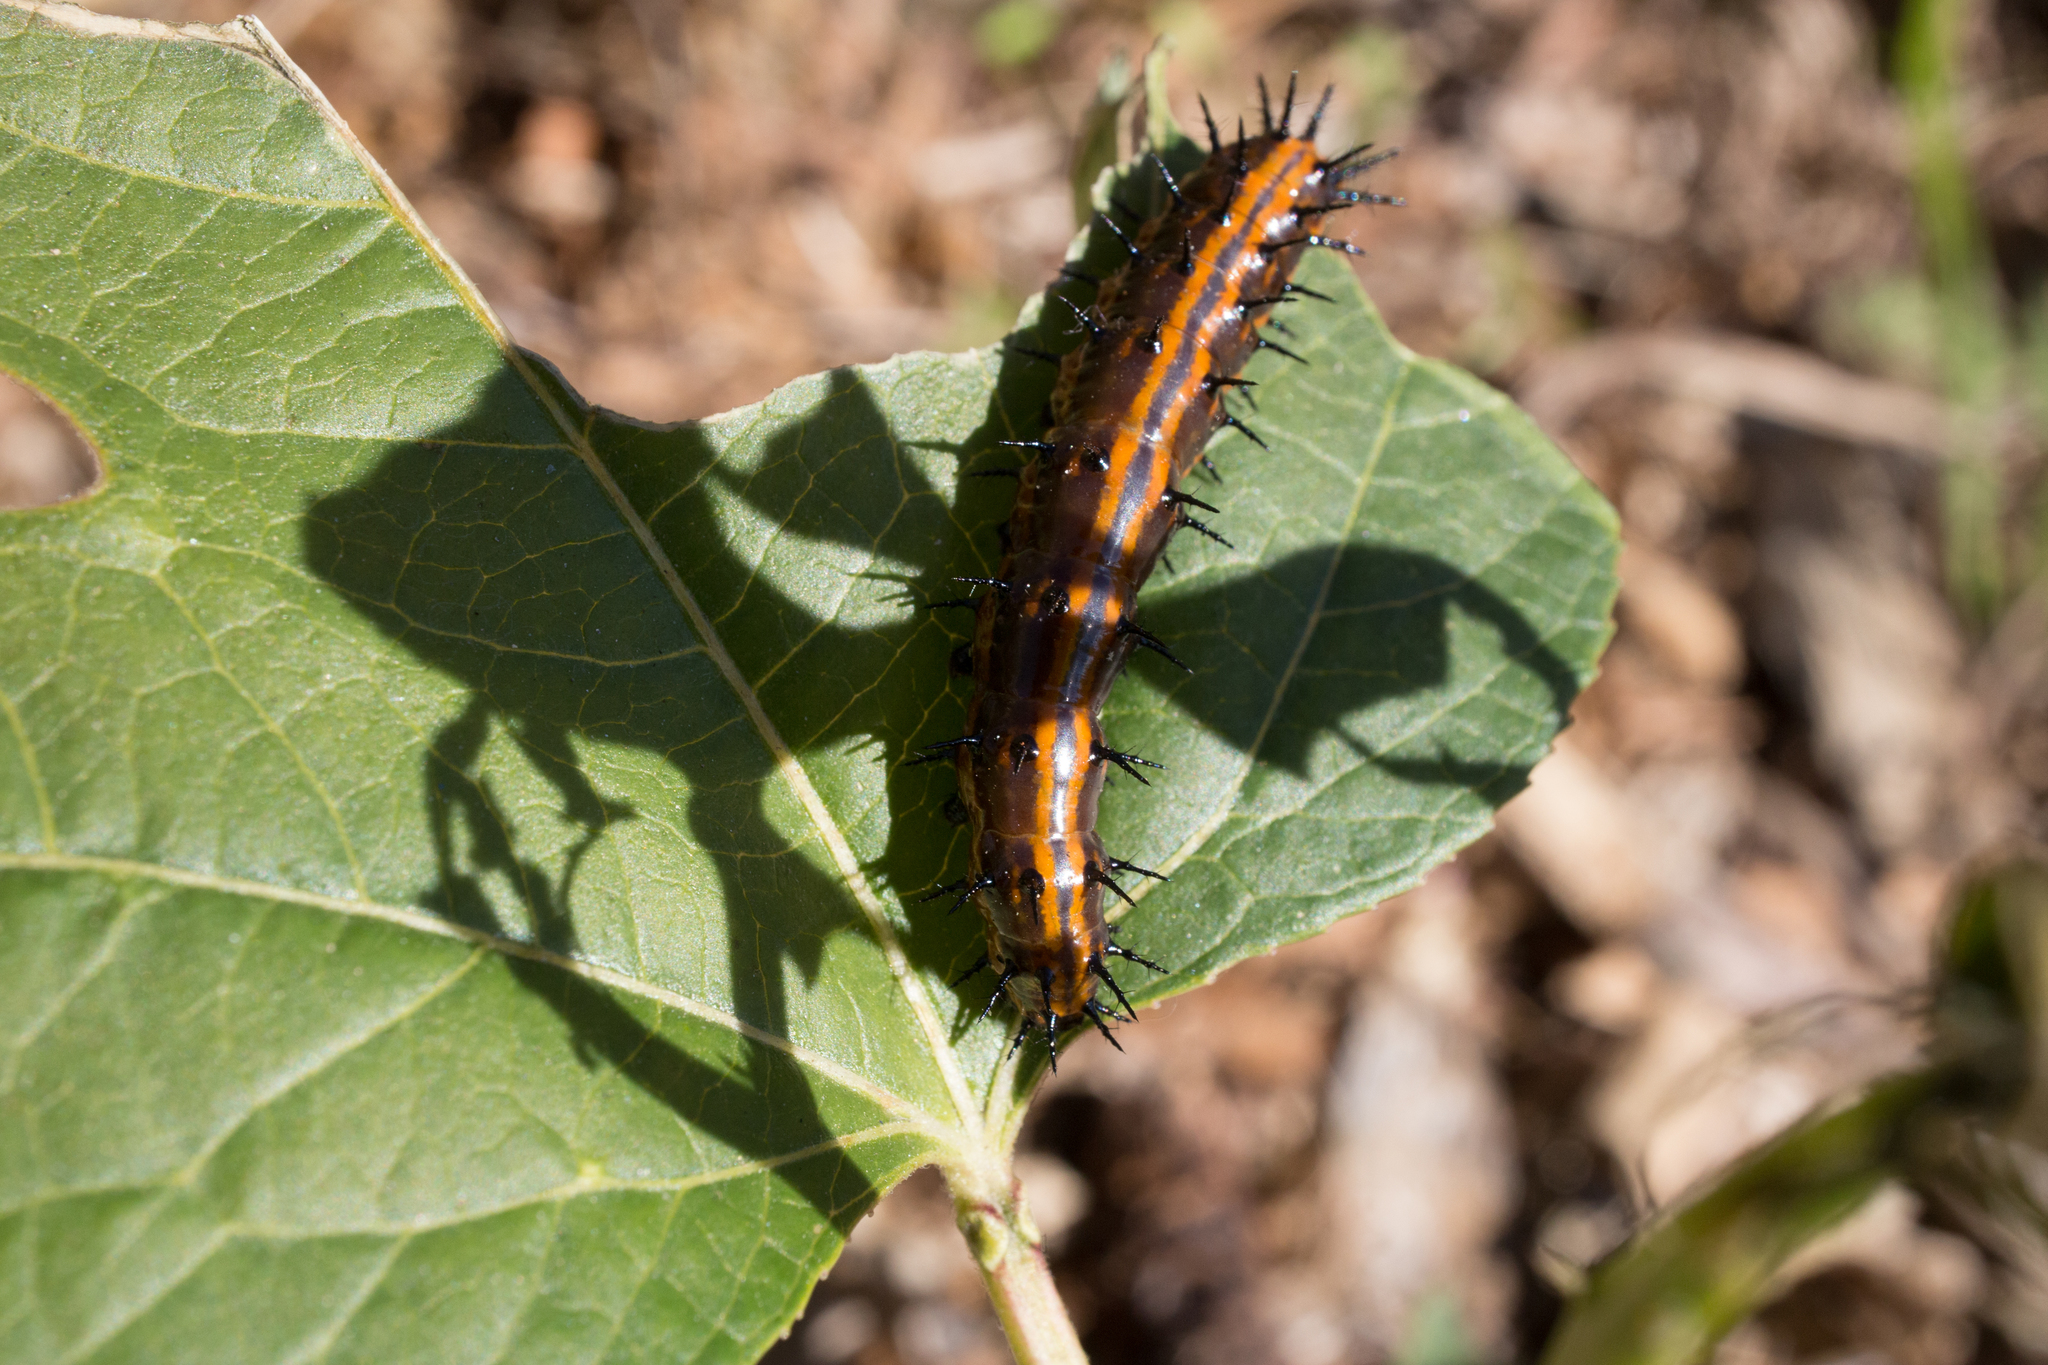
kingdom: Animalia
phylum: Arthropoda
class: Insecta
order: Lepidoptera
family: Nymphalidae
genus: Dione
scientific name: Dione vanillae
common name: Gulf fritillary
